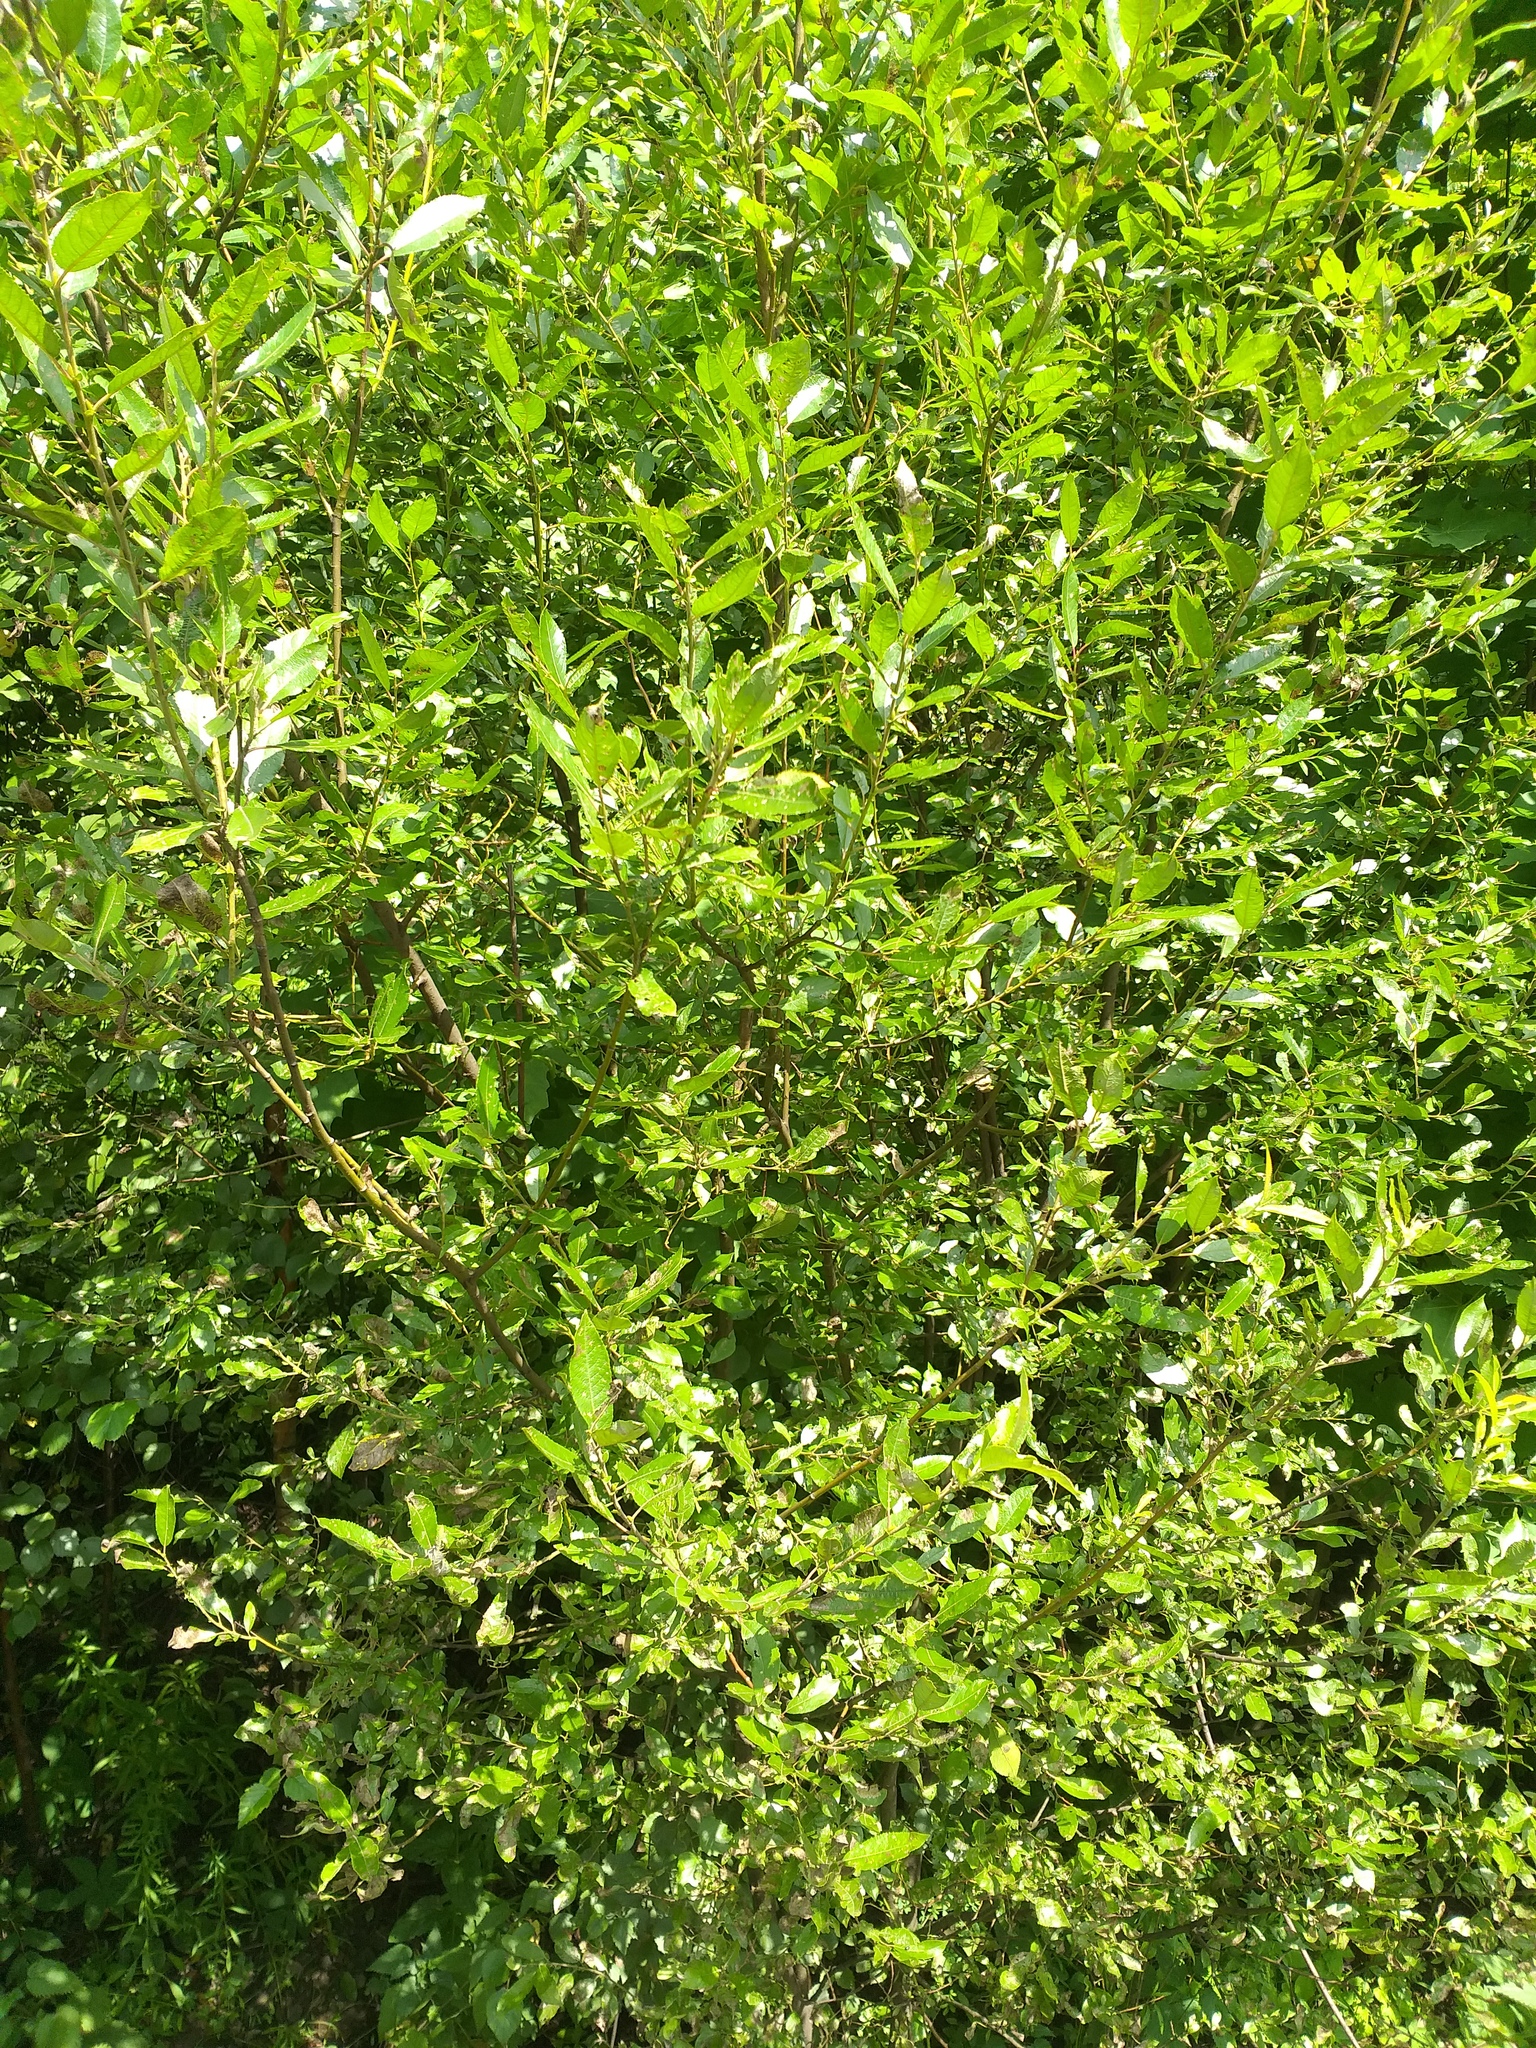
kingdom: Plantae
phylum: Tracheophyta
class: Magnoliopsida
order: Malpighiales
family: Salicaceae
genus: Salix
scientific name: Salix myrsinifolia
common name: Dark-leaved willow
